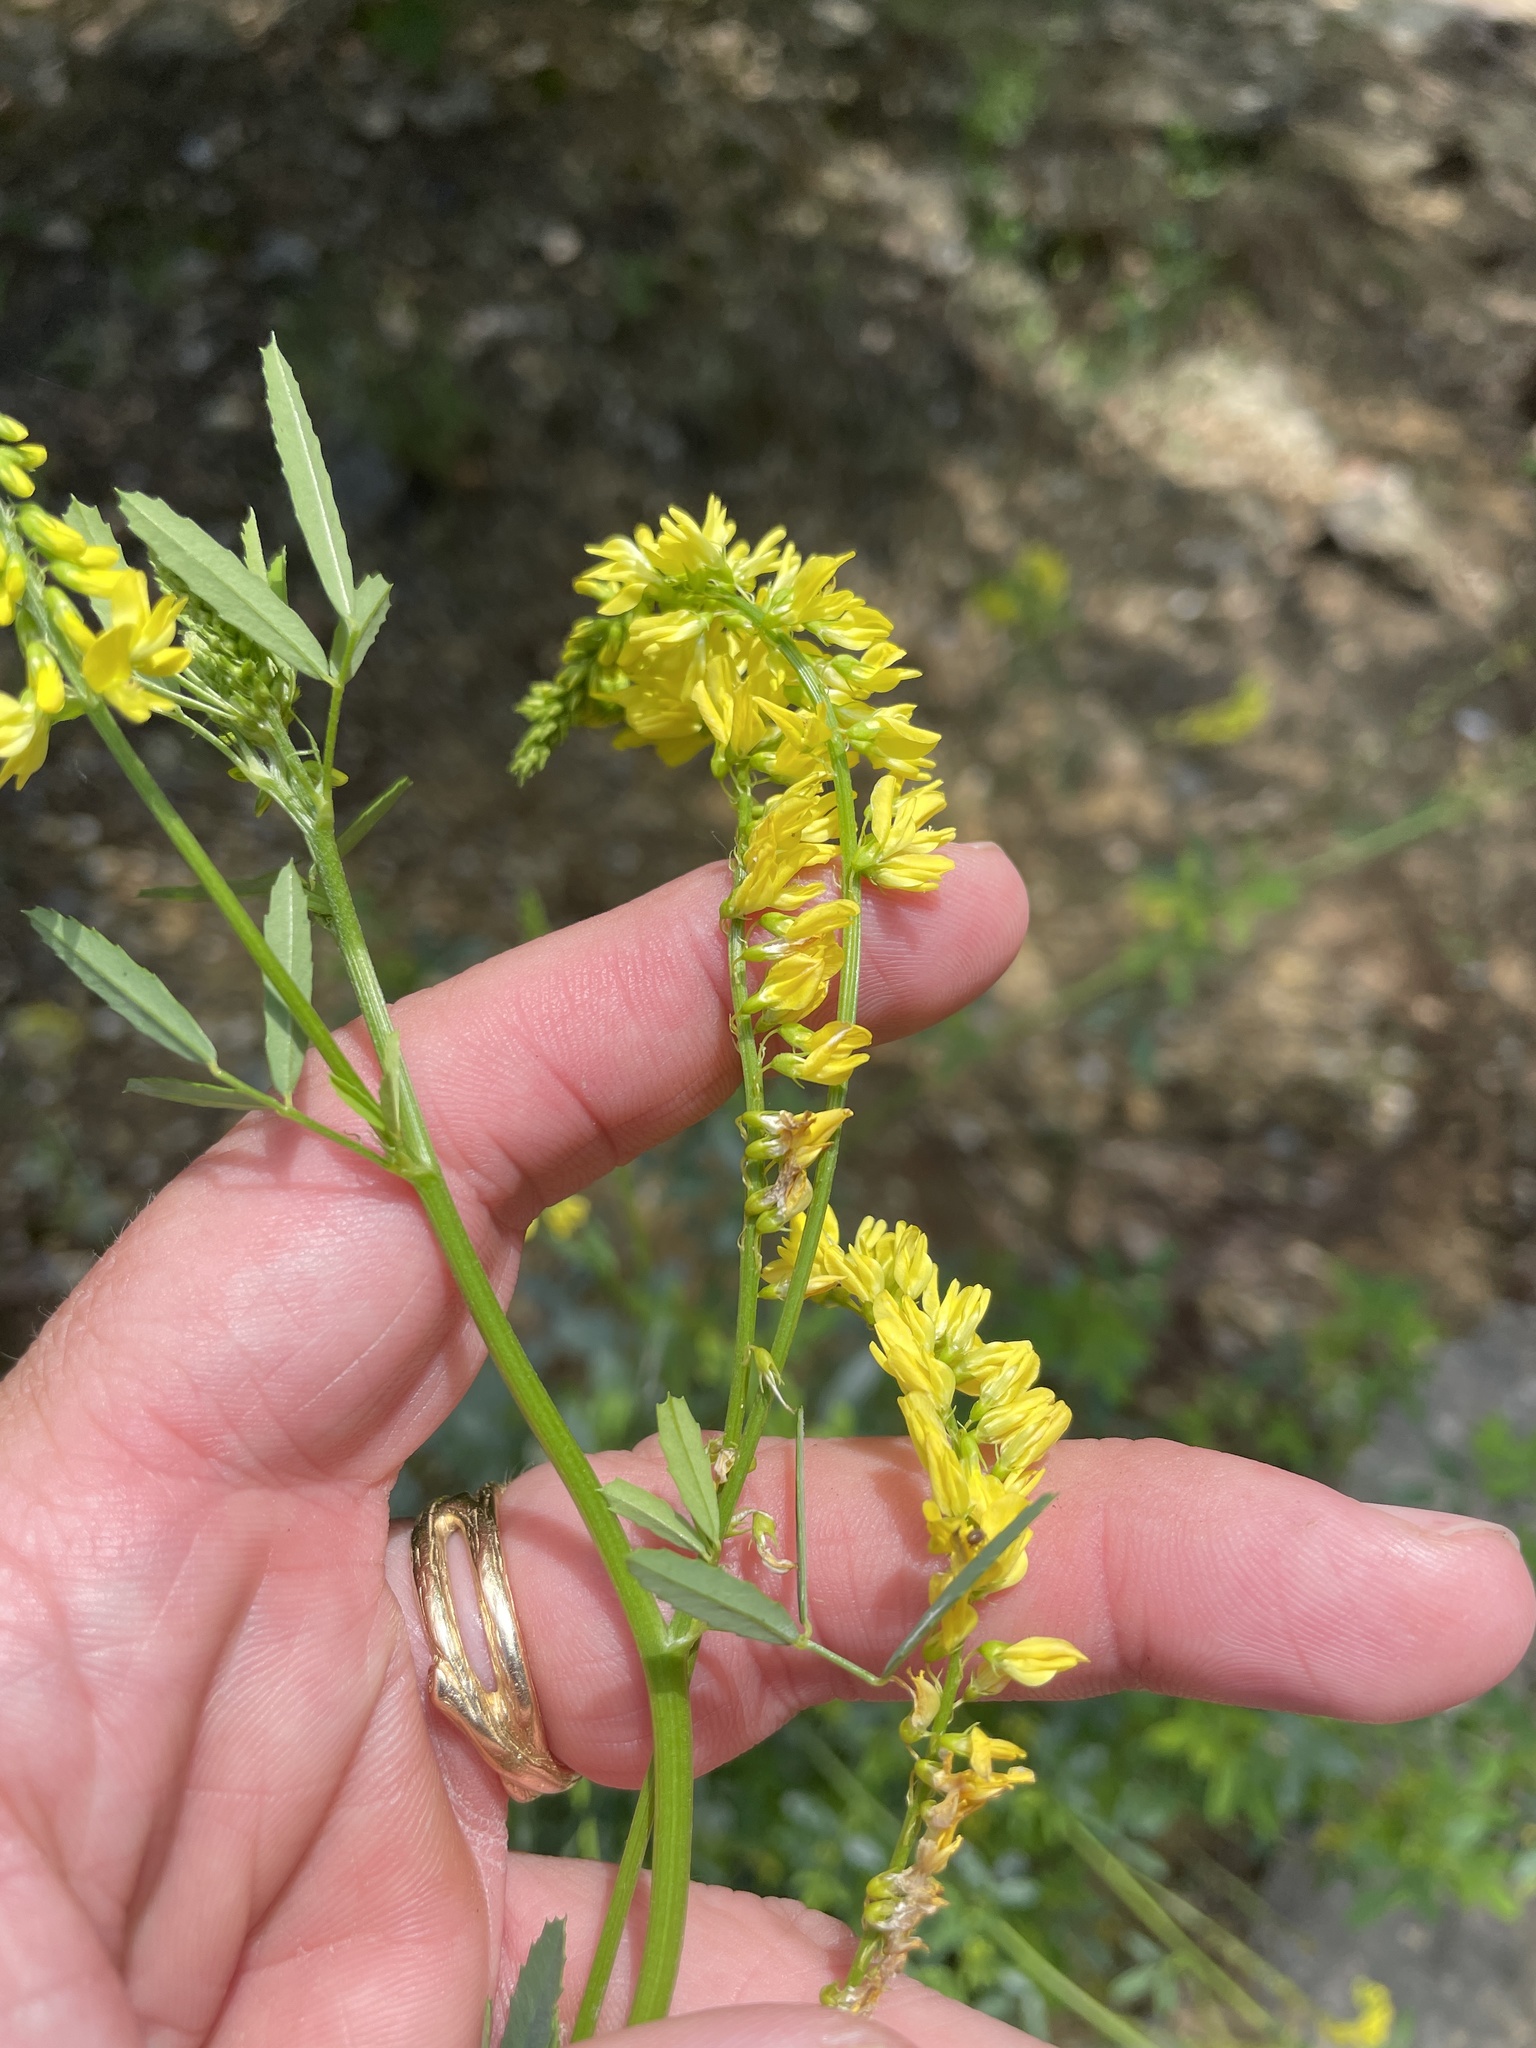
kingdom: Plantae
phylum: Tracheophyta
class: Magnoliopsida
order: Fabales
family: Fabaceae
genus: Melilotus
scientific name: Melilotus officinalis
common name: Sweetclover
